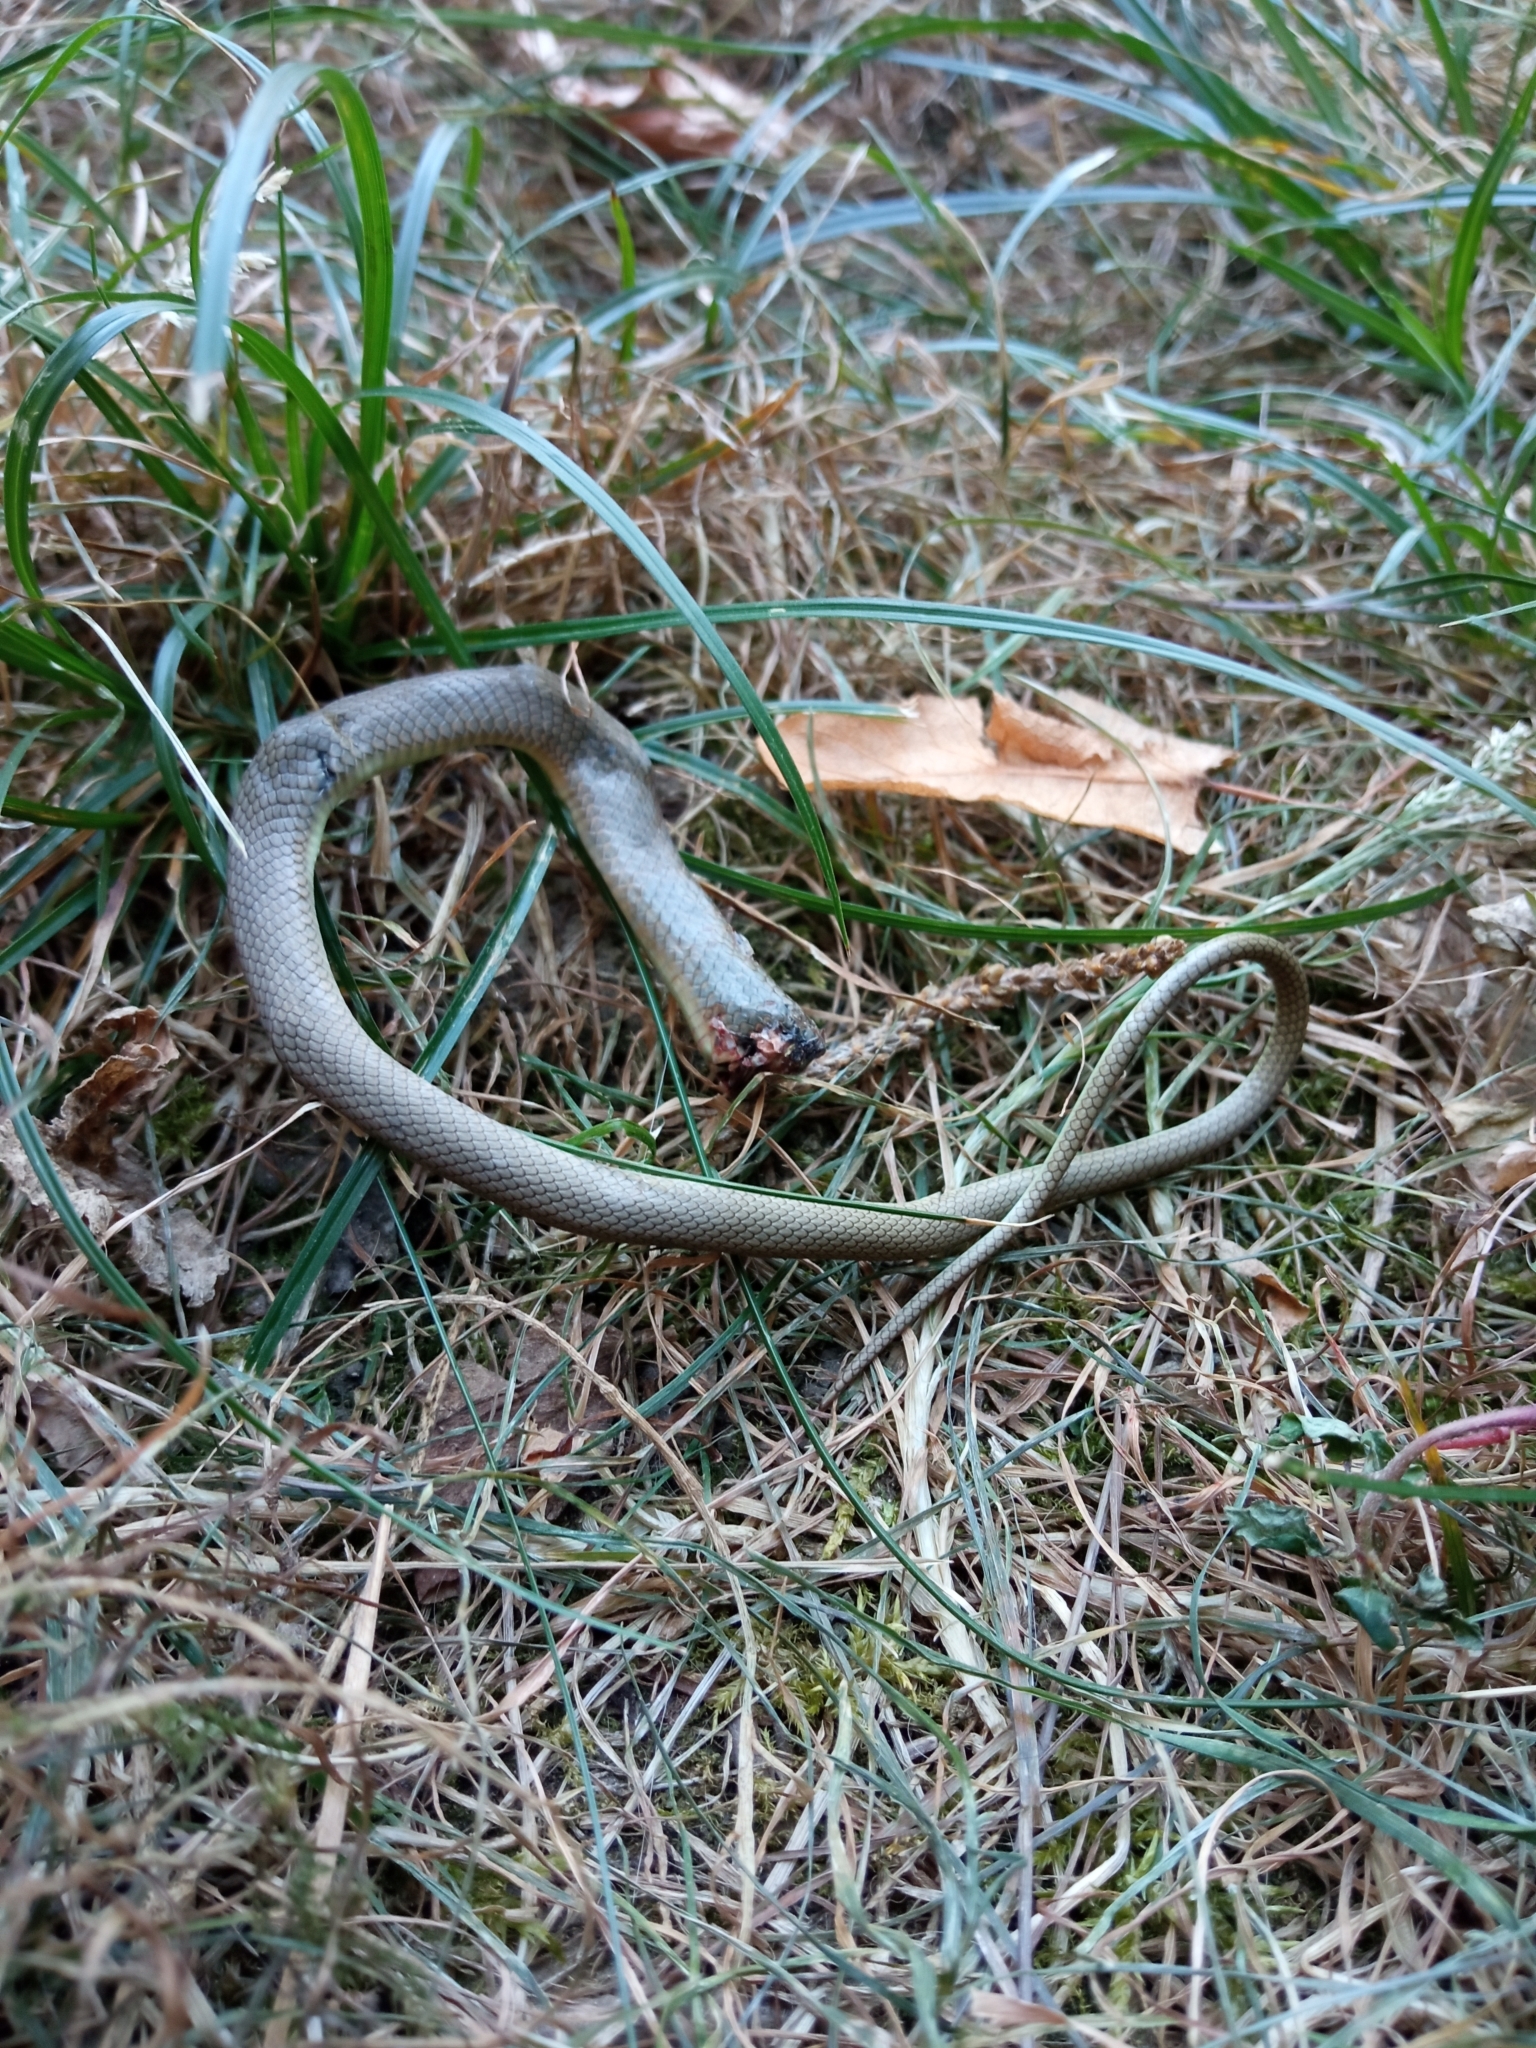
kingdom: Animalia
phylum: Chordata
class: Squamata
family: Colubridae
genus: Hierophis
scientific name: Hierophis viridiflavus
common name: Green whip snake
